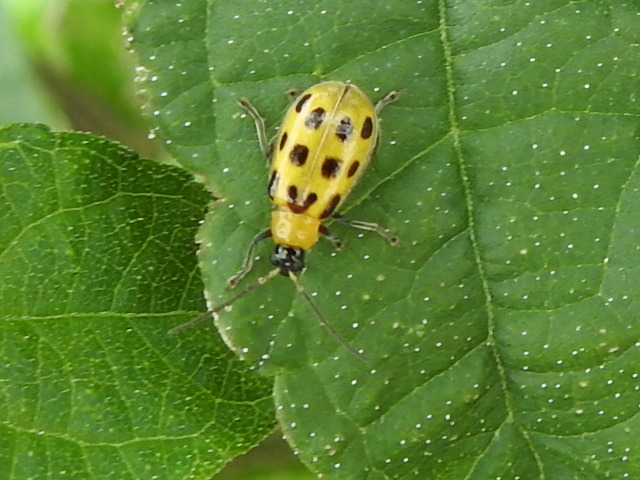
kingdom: Animalia
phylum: Arthropoda
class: Insecta
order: Coleoptera
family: Chrysomelidae
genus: Diabrotica
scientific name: Diabrotica undecimpunctata
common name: Spotted cucumber beetle
